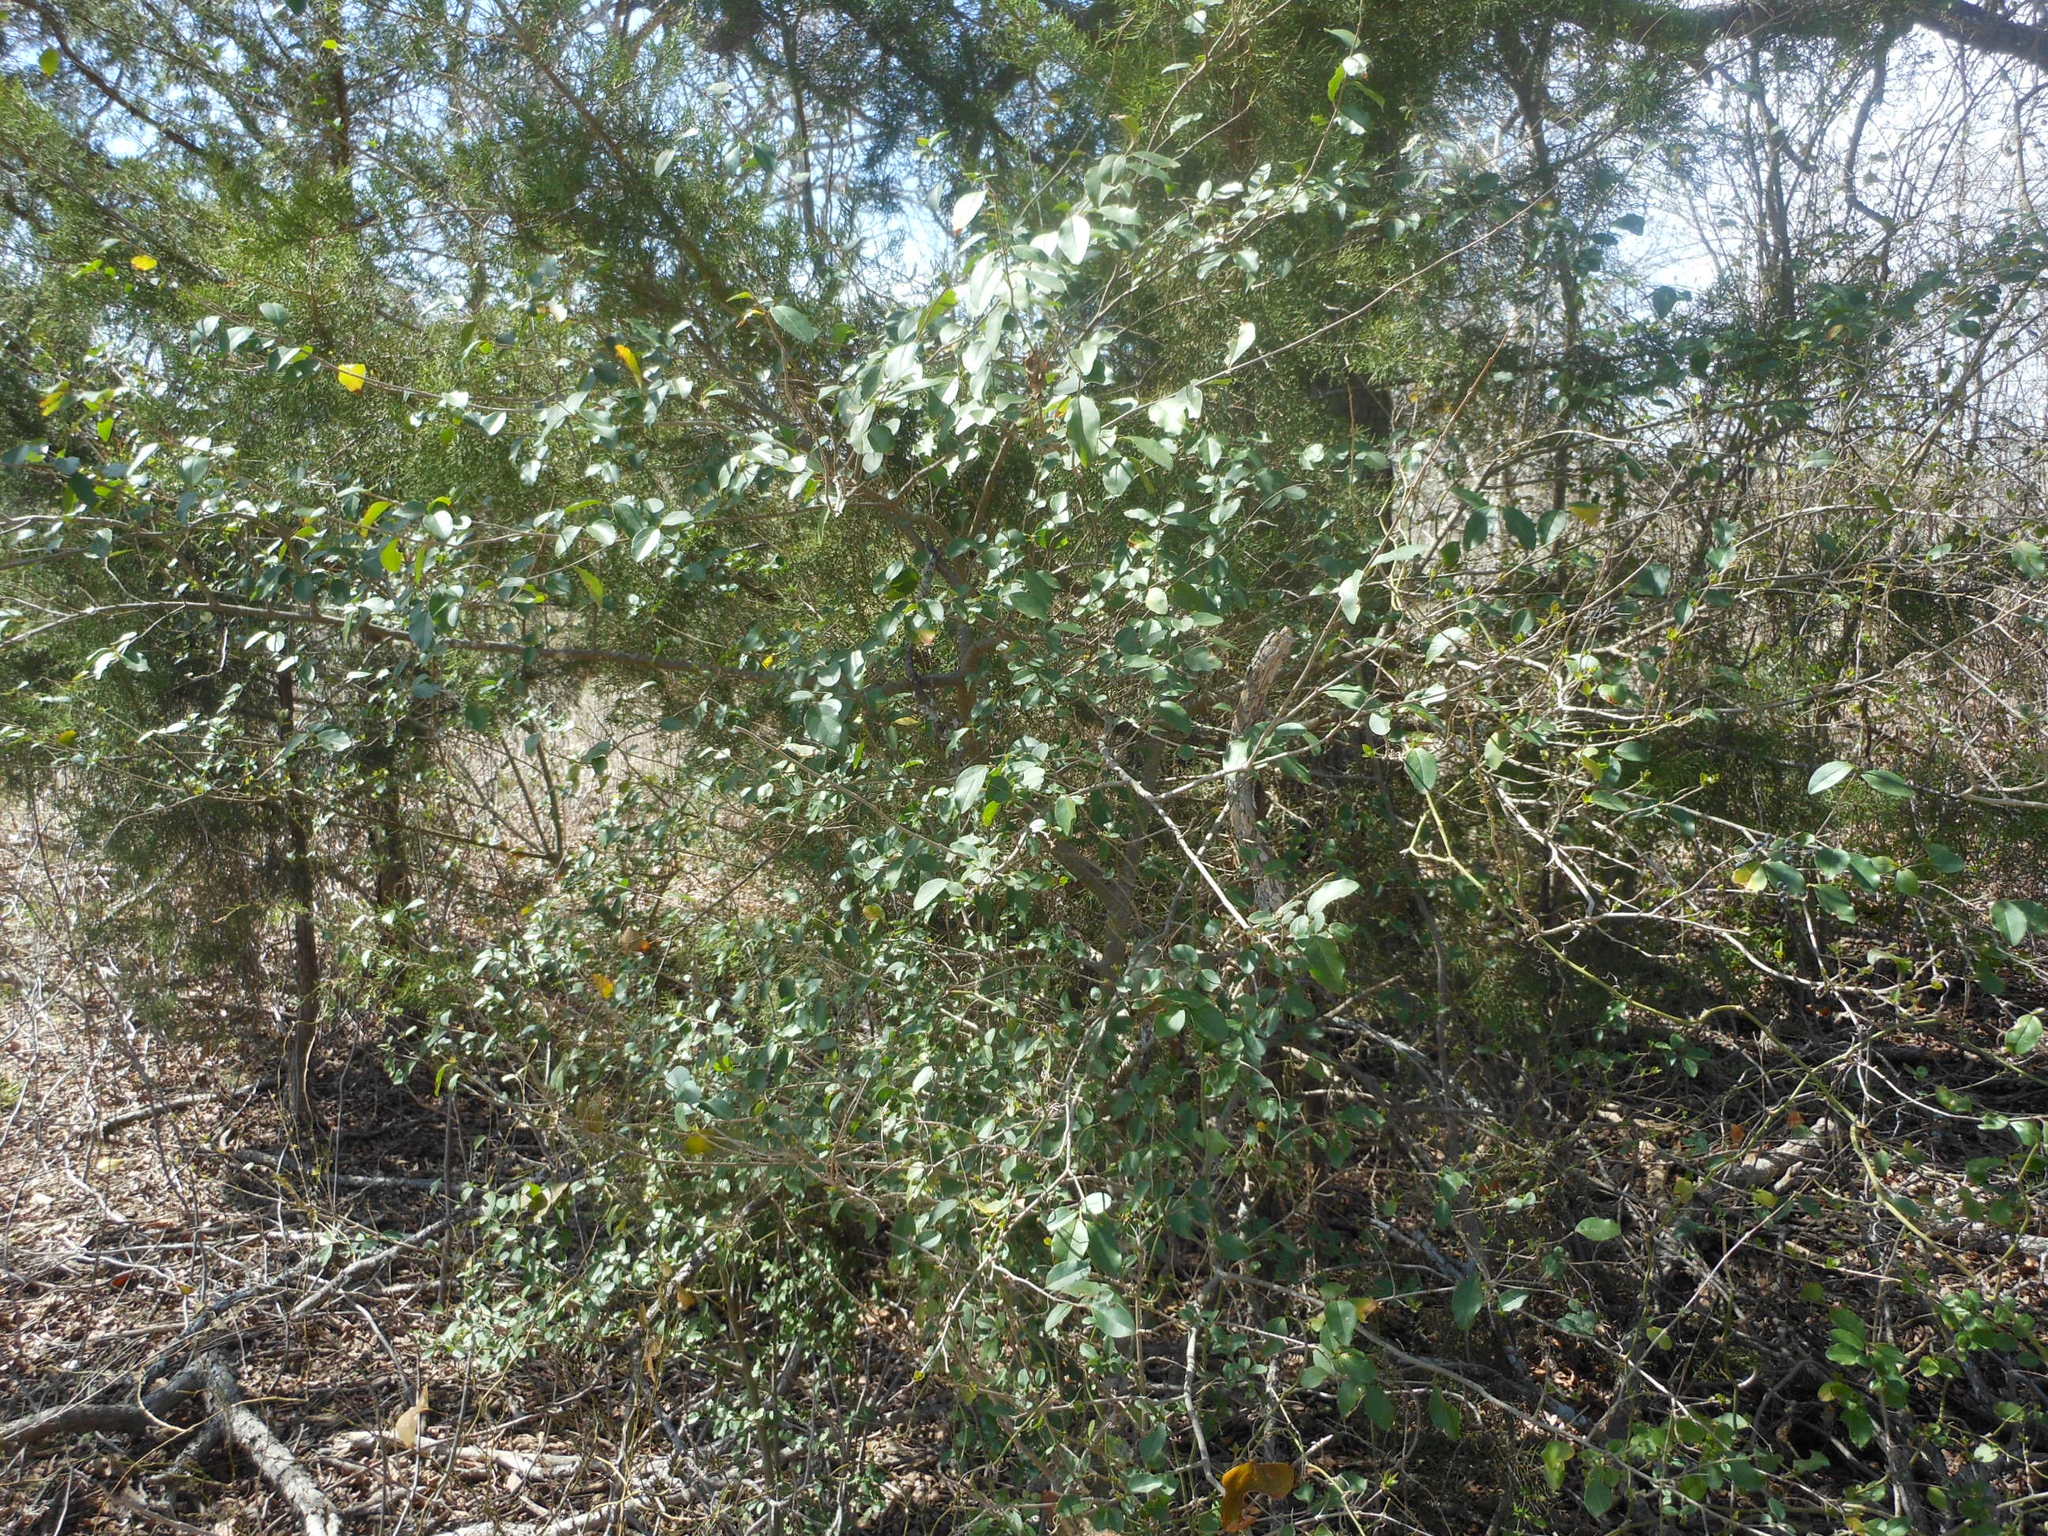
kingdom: Plantae
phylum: Tracheophyta
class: Magnoliopsida
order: Lamiales
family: Oleaceae
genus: Ligustrum
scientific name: Ligustrum sinense
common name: Chinese privet
